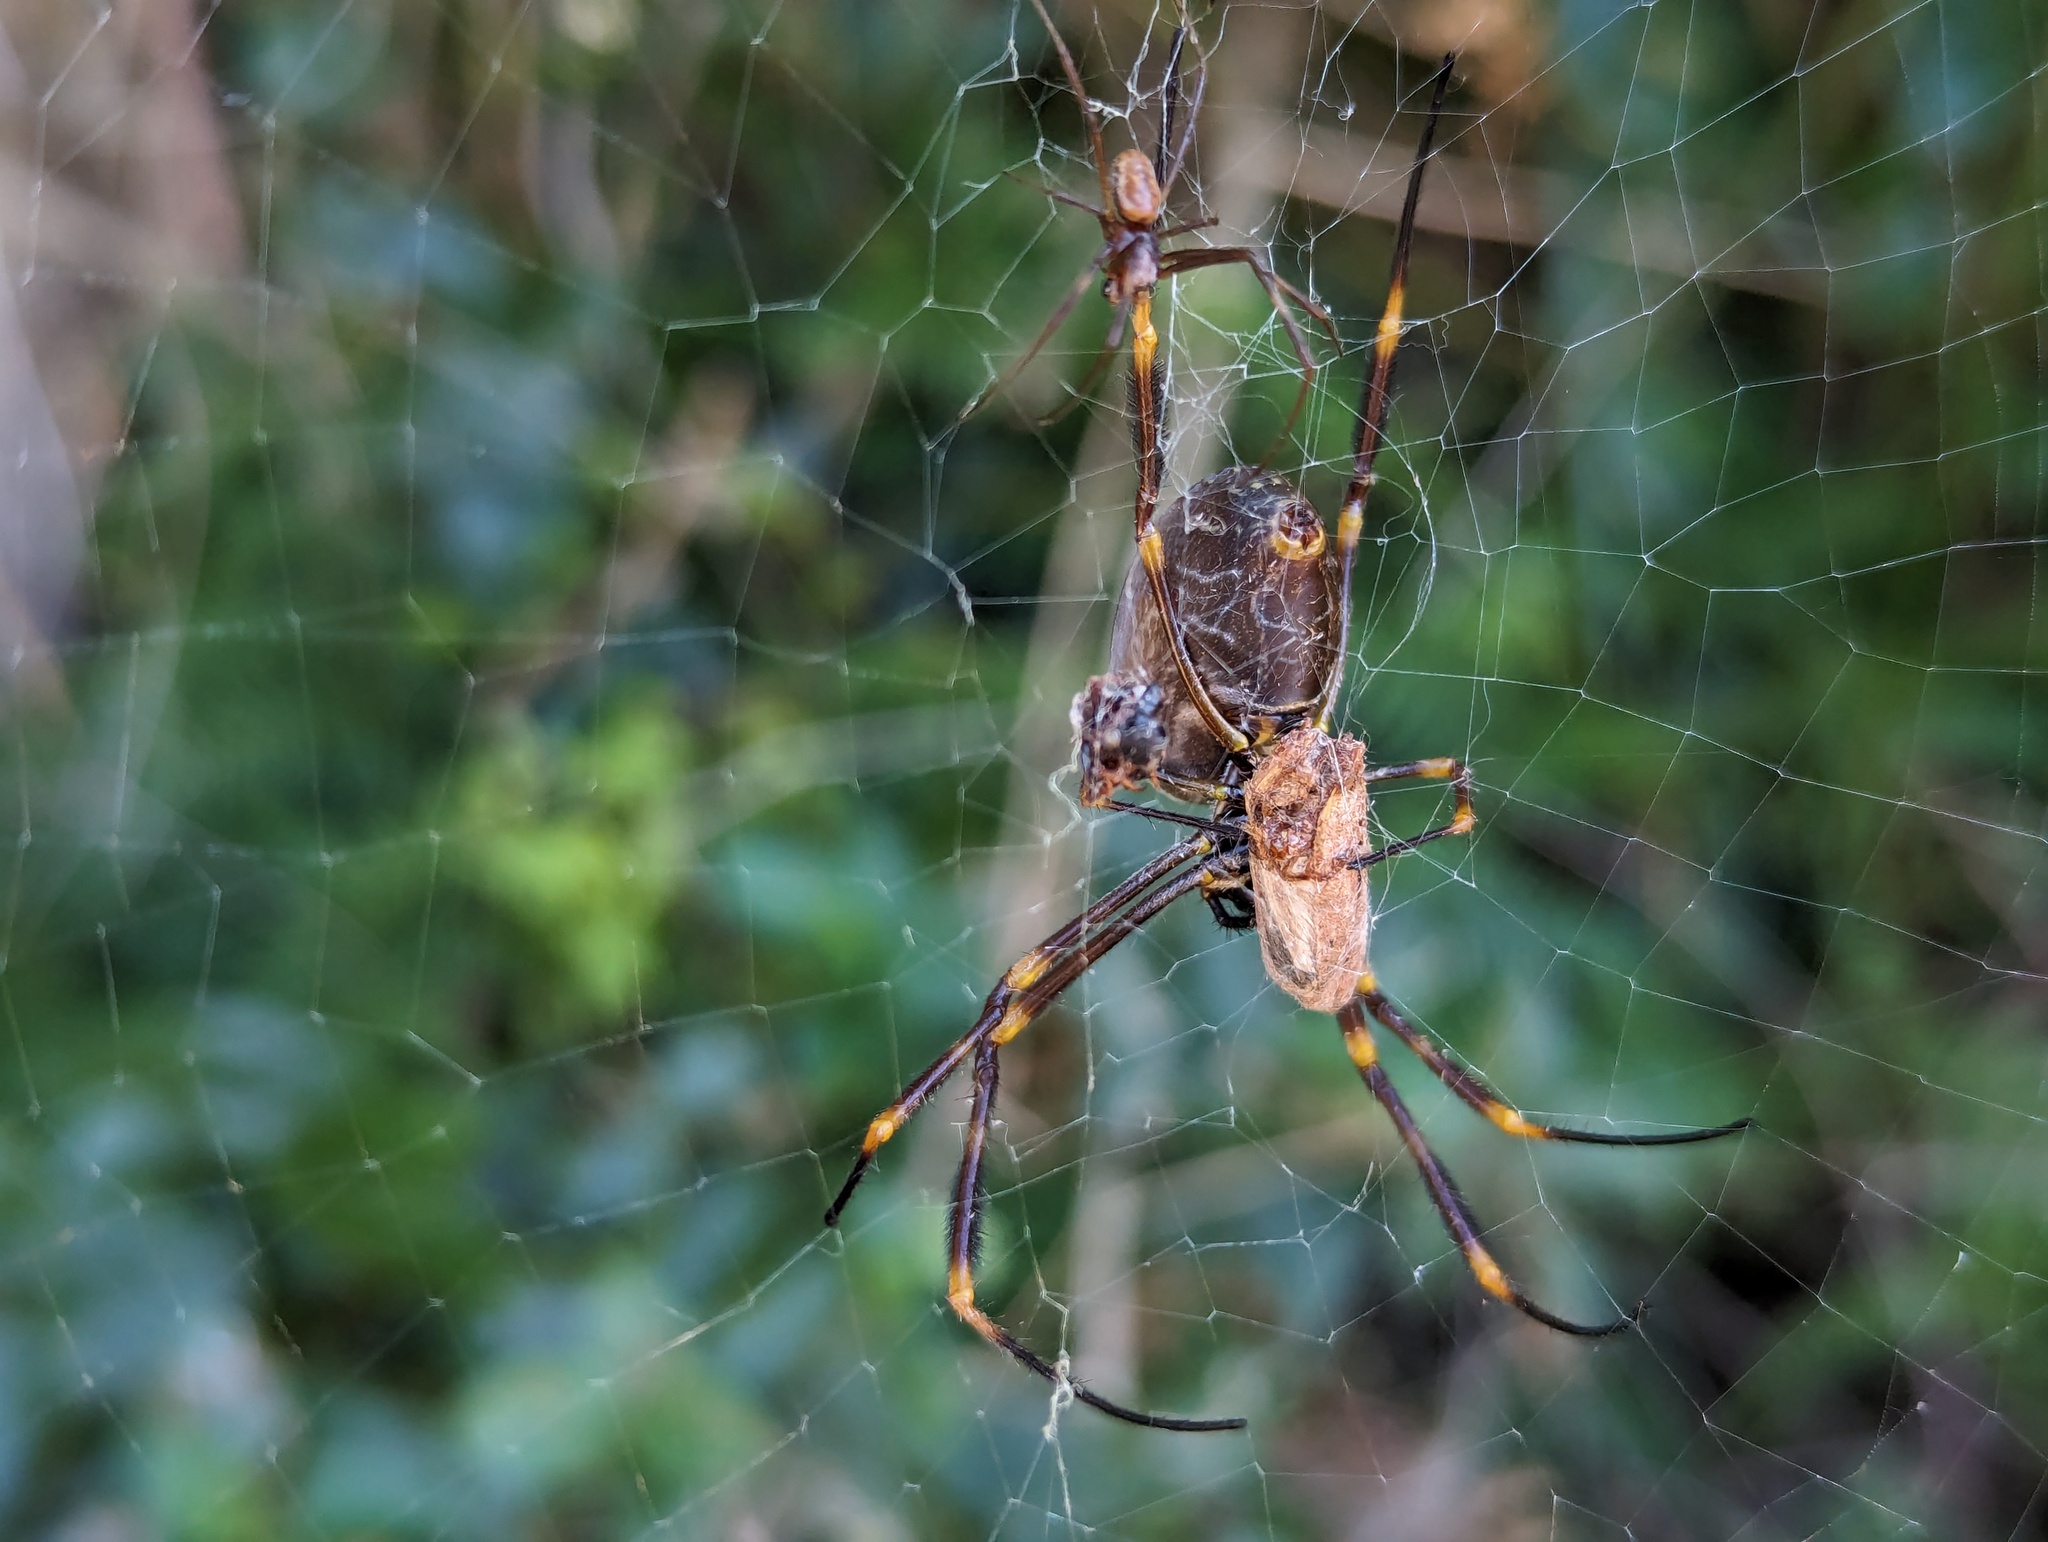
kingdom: Animalia
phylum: Arthropoda
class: Arachnida
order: Araneae
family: Araneidae
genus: Trichonephila
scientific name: Trichonephila plumipes
